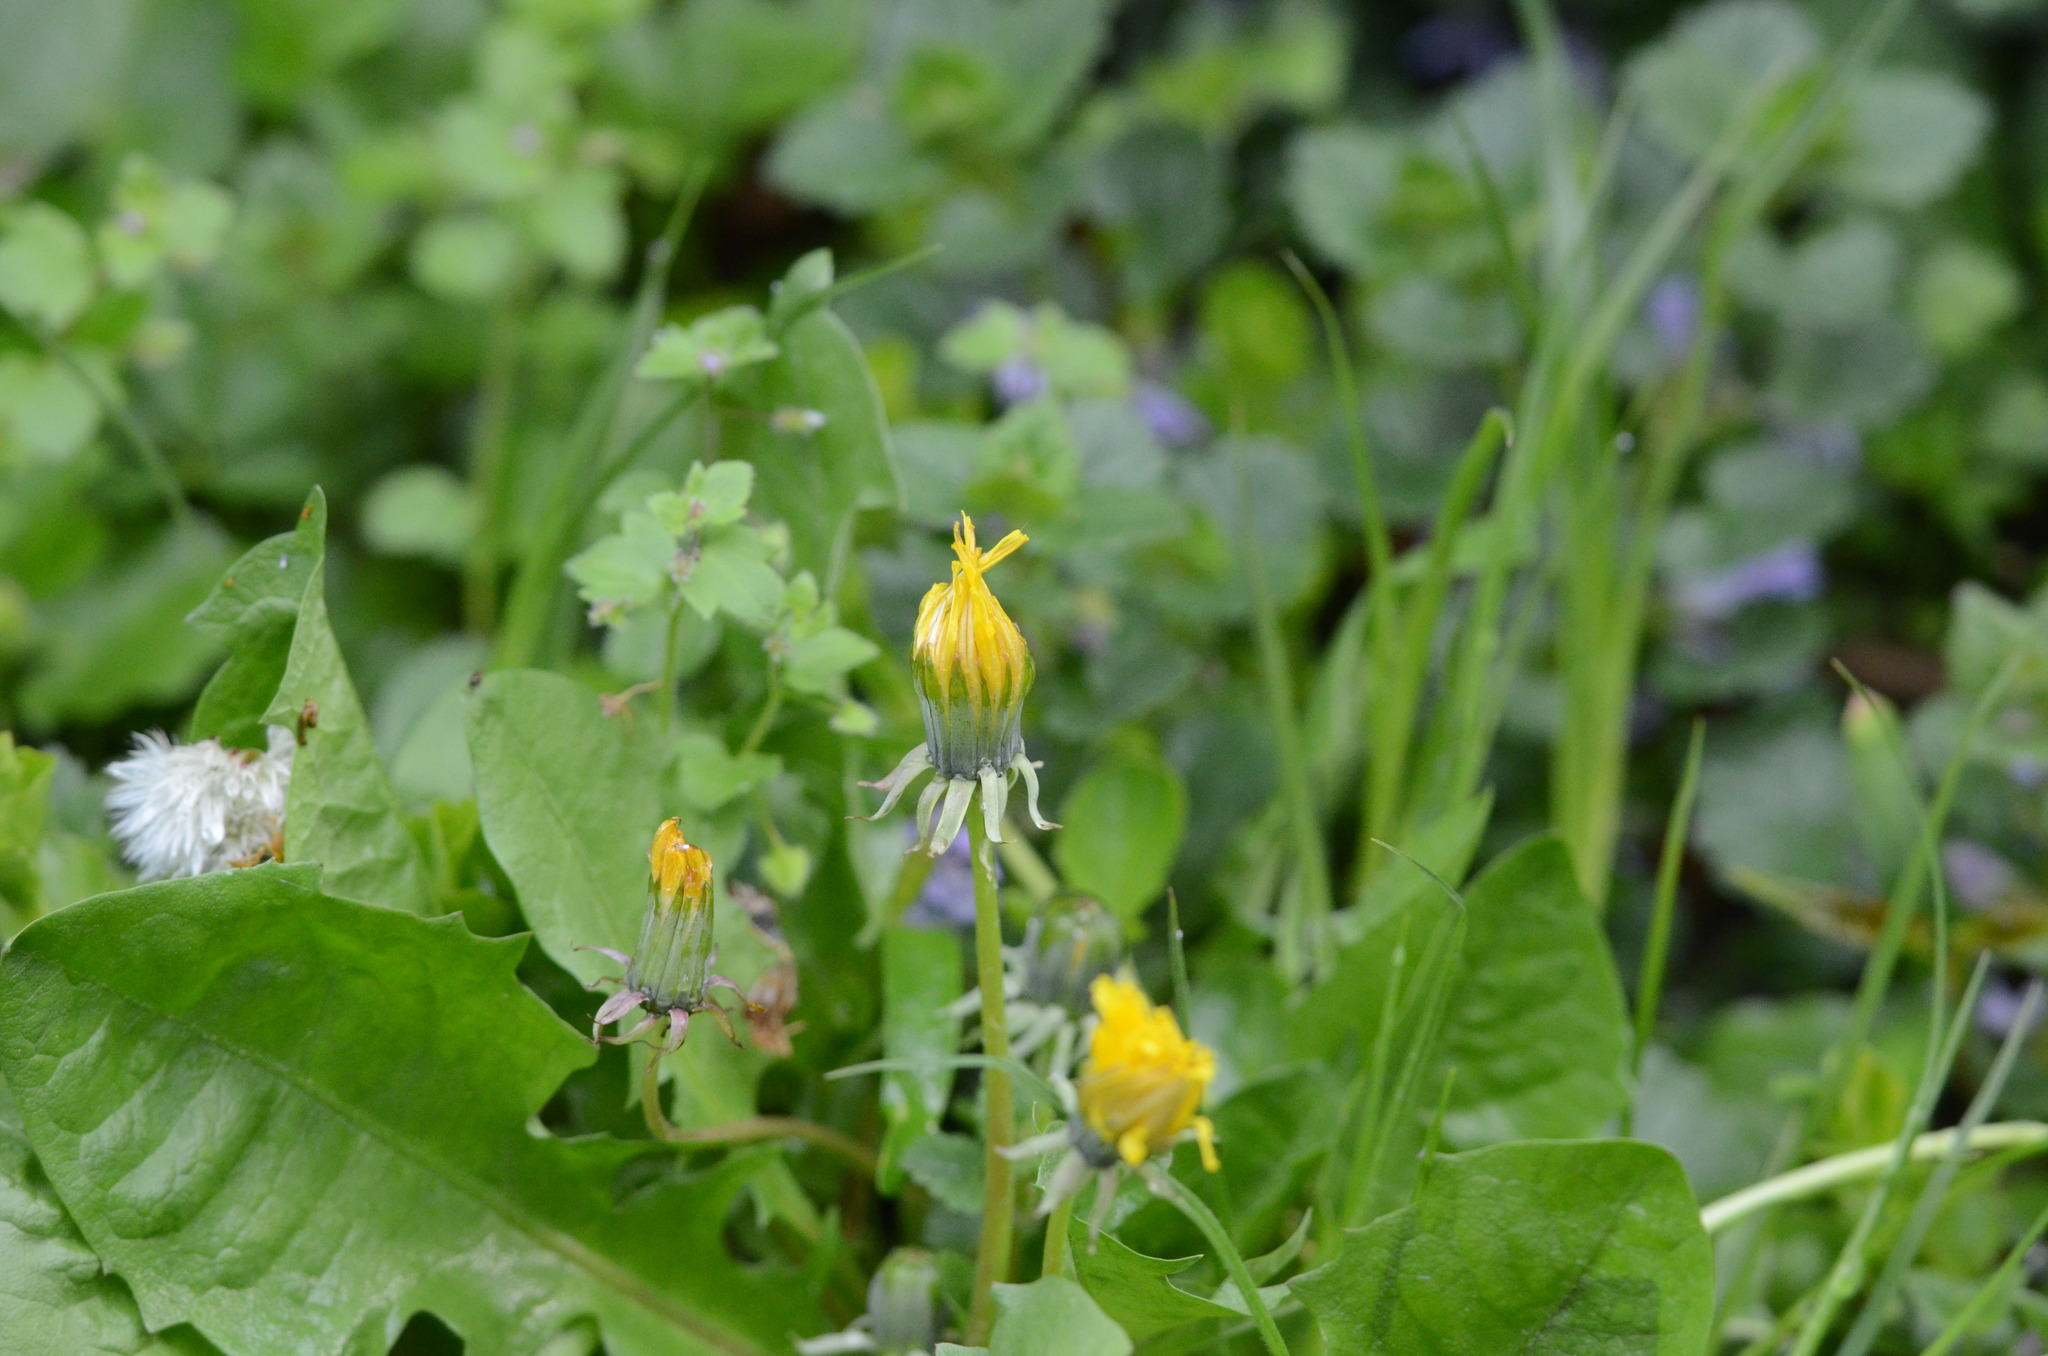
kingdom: Plantae
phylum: Tracheophyta
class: Magnoliopsida
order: Asterales
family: Asteraceae
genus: Taraxacum
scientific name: Taraxacum
